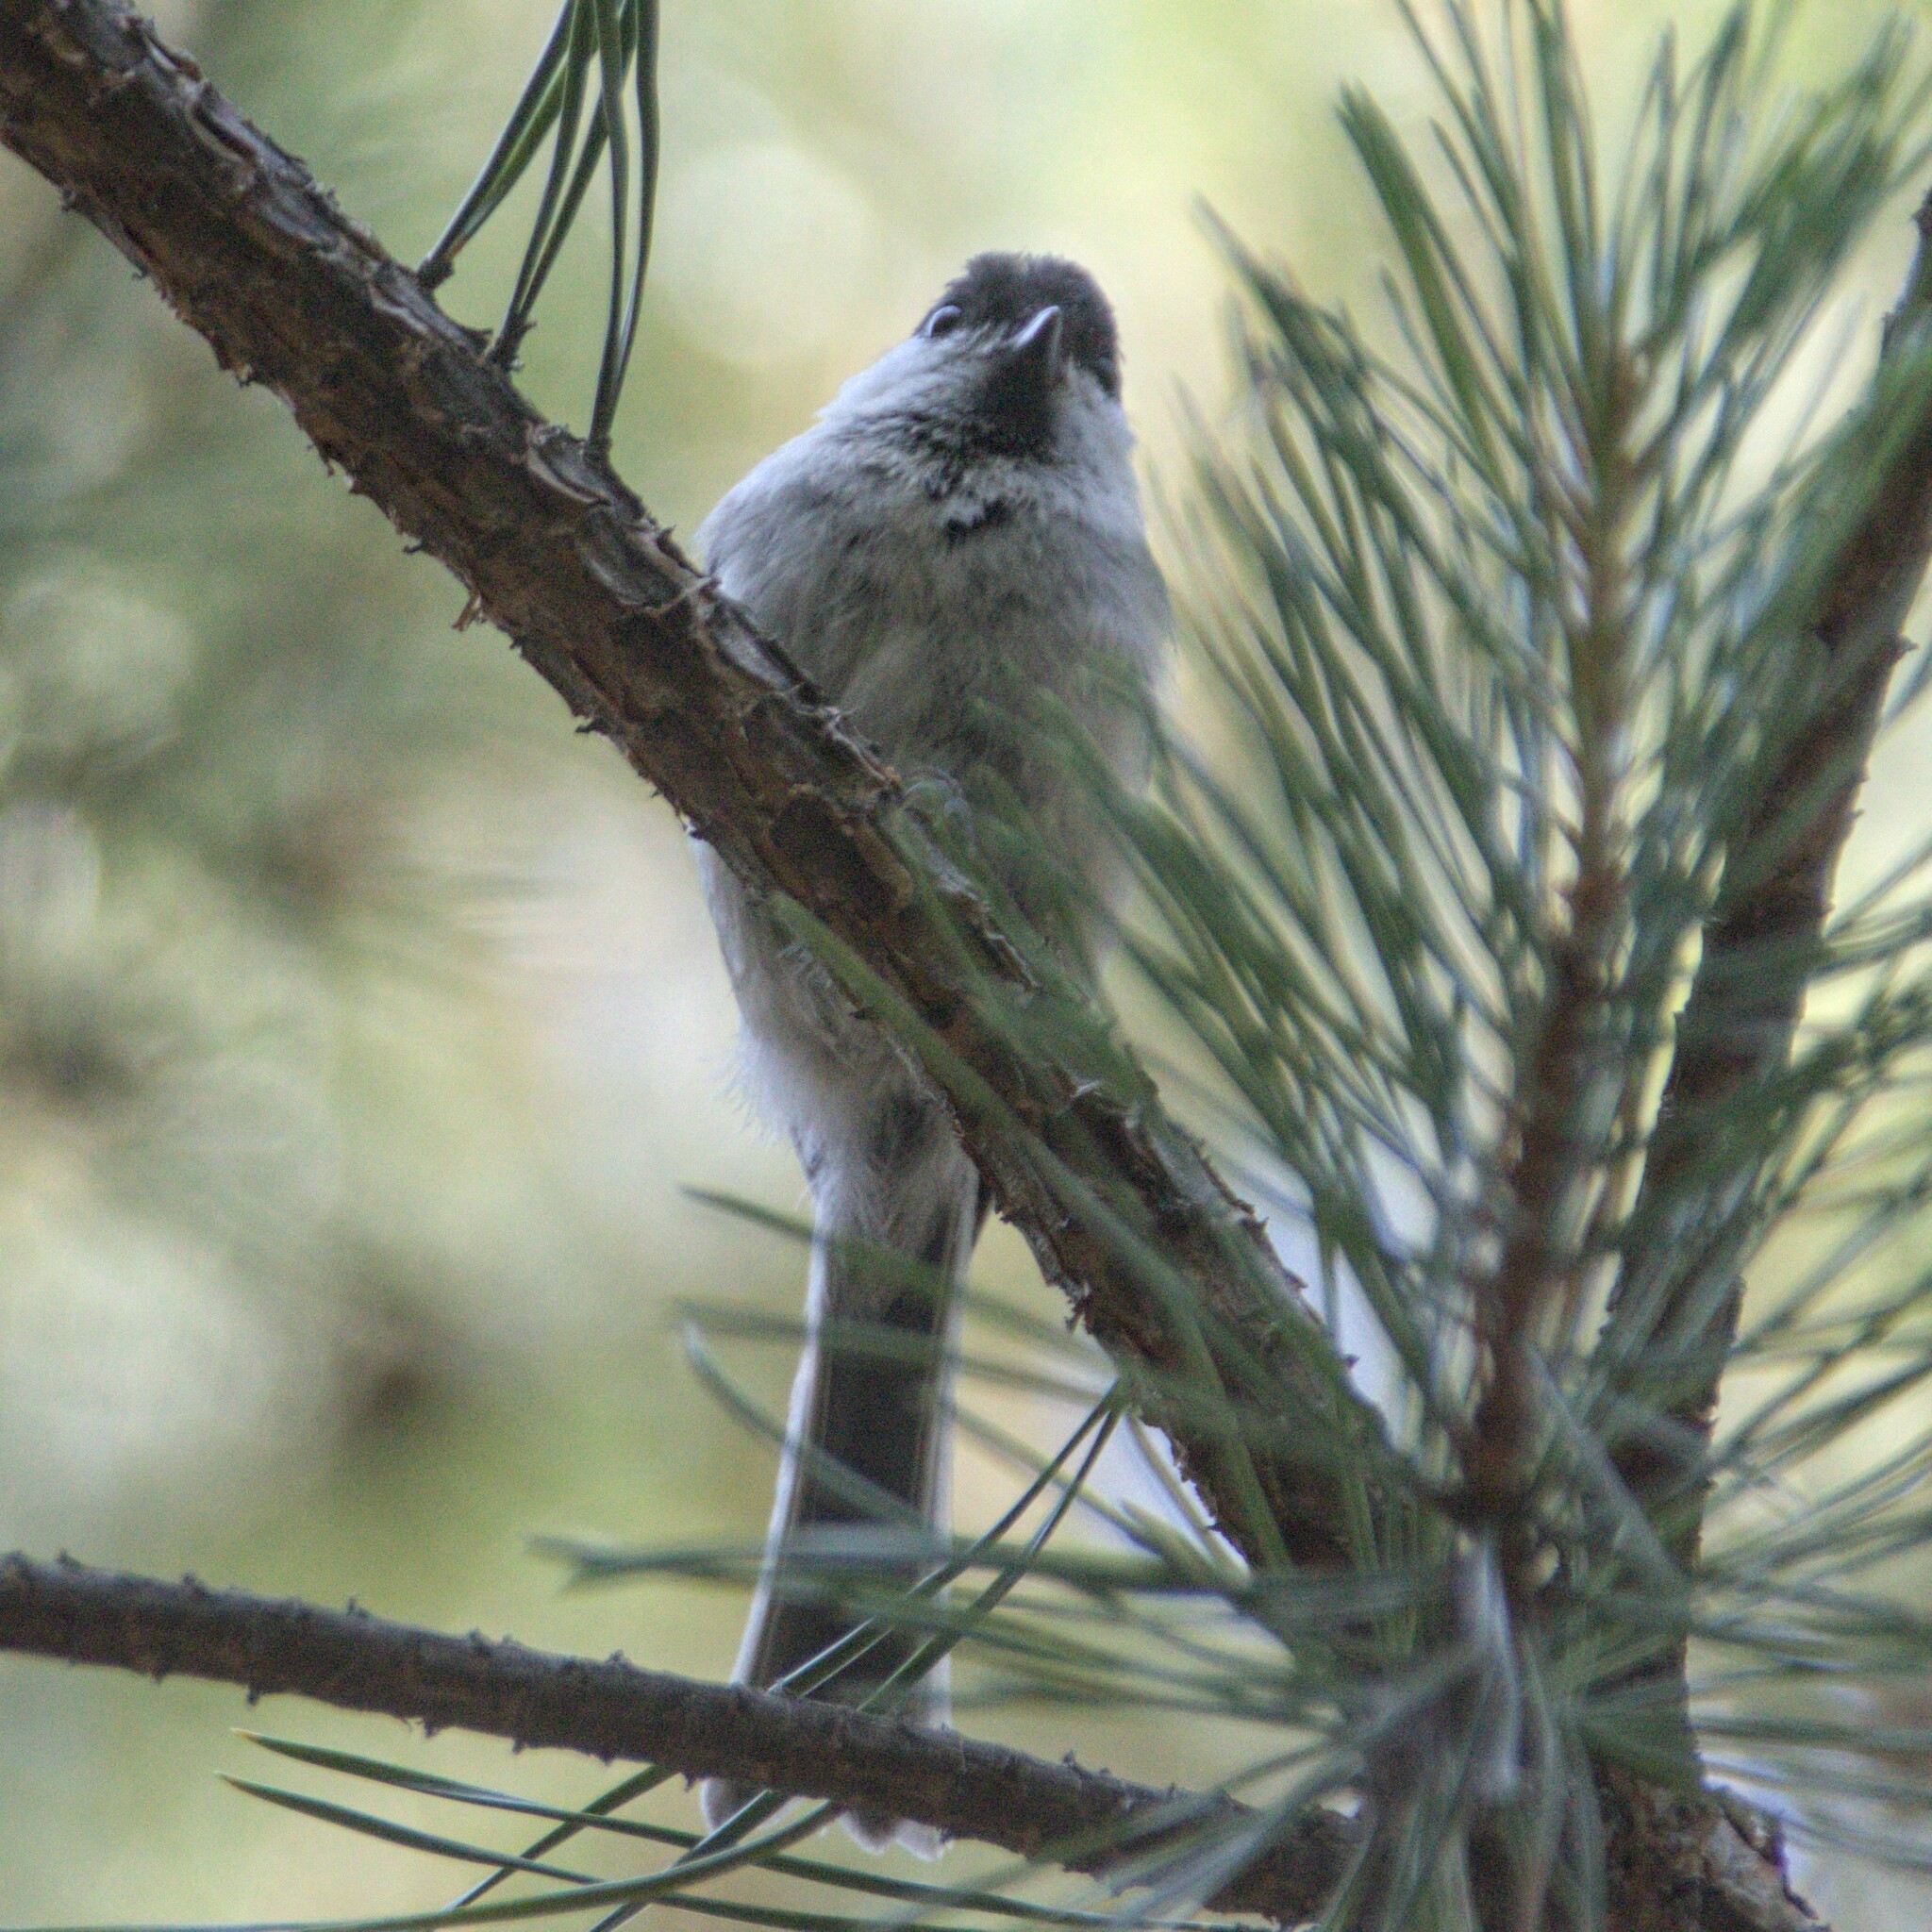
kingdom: Animalia
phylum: Chordata
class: Aves
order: Passeriformes
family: Paridae
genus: Poecile
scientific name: Poecile montanus
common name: Willow tit
